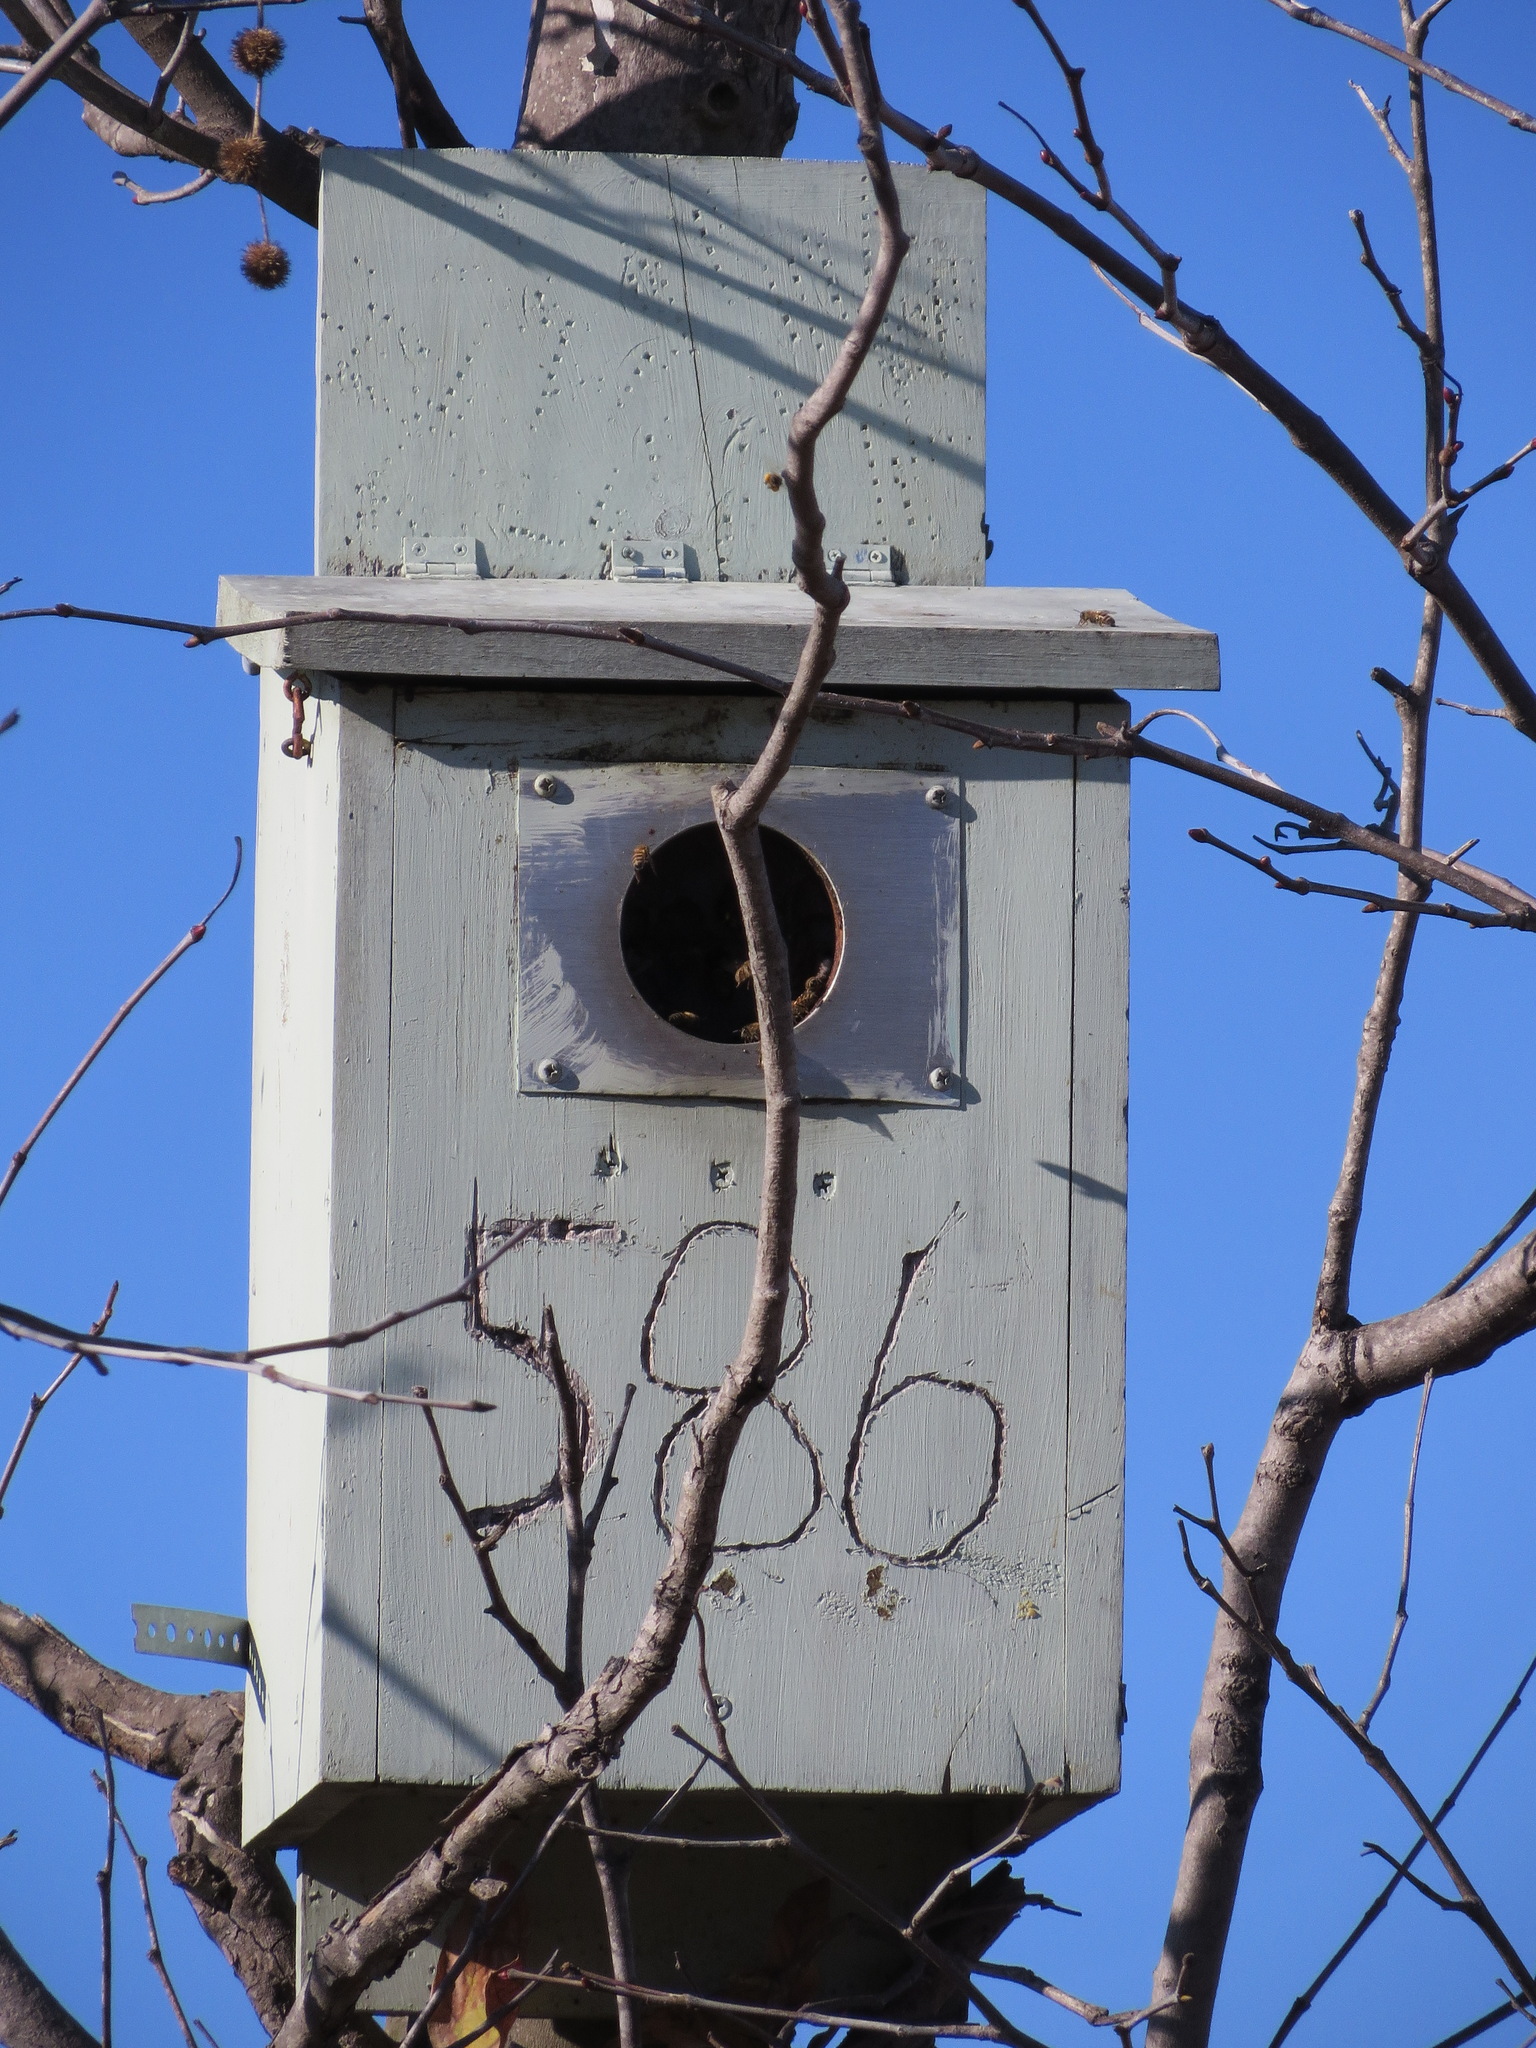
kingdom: Animalia
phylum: Arthropoda
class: Insecta
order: Hymenoptera
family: Apidae
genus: Apis
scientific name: Apis mellifera
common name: Honey bee
